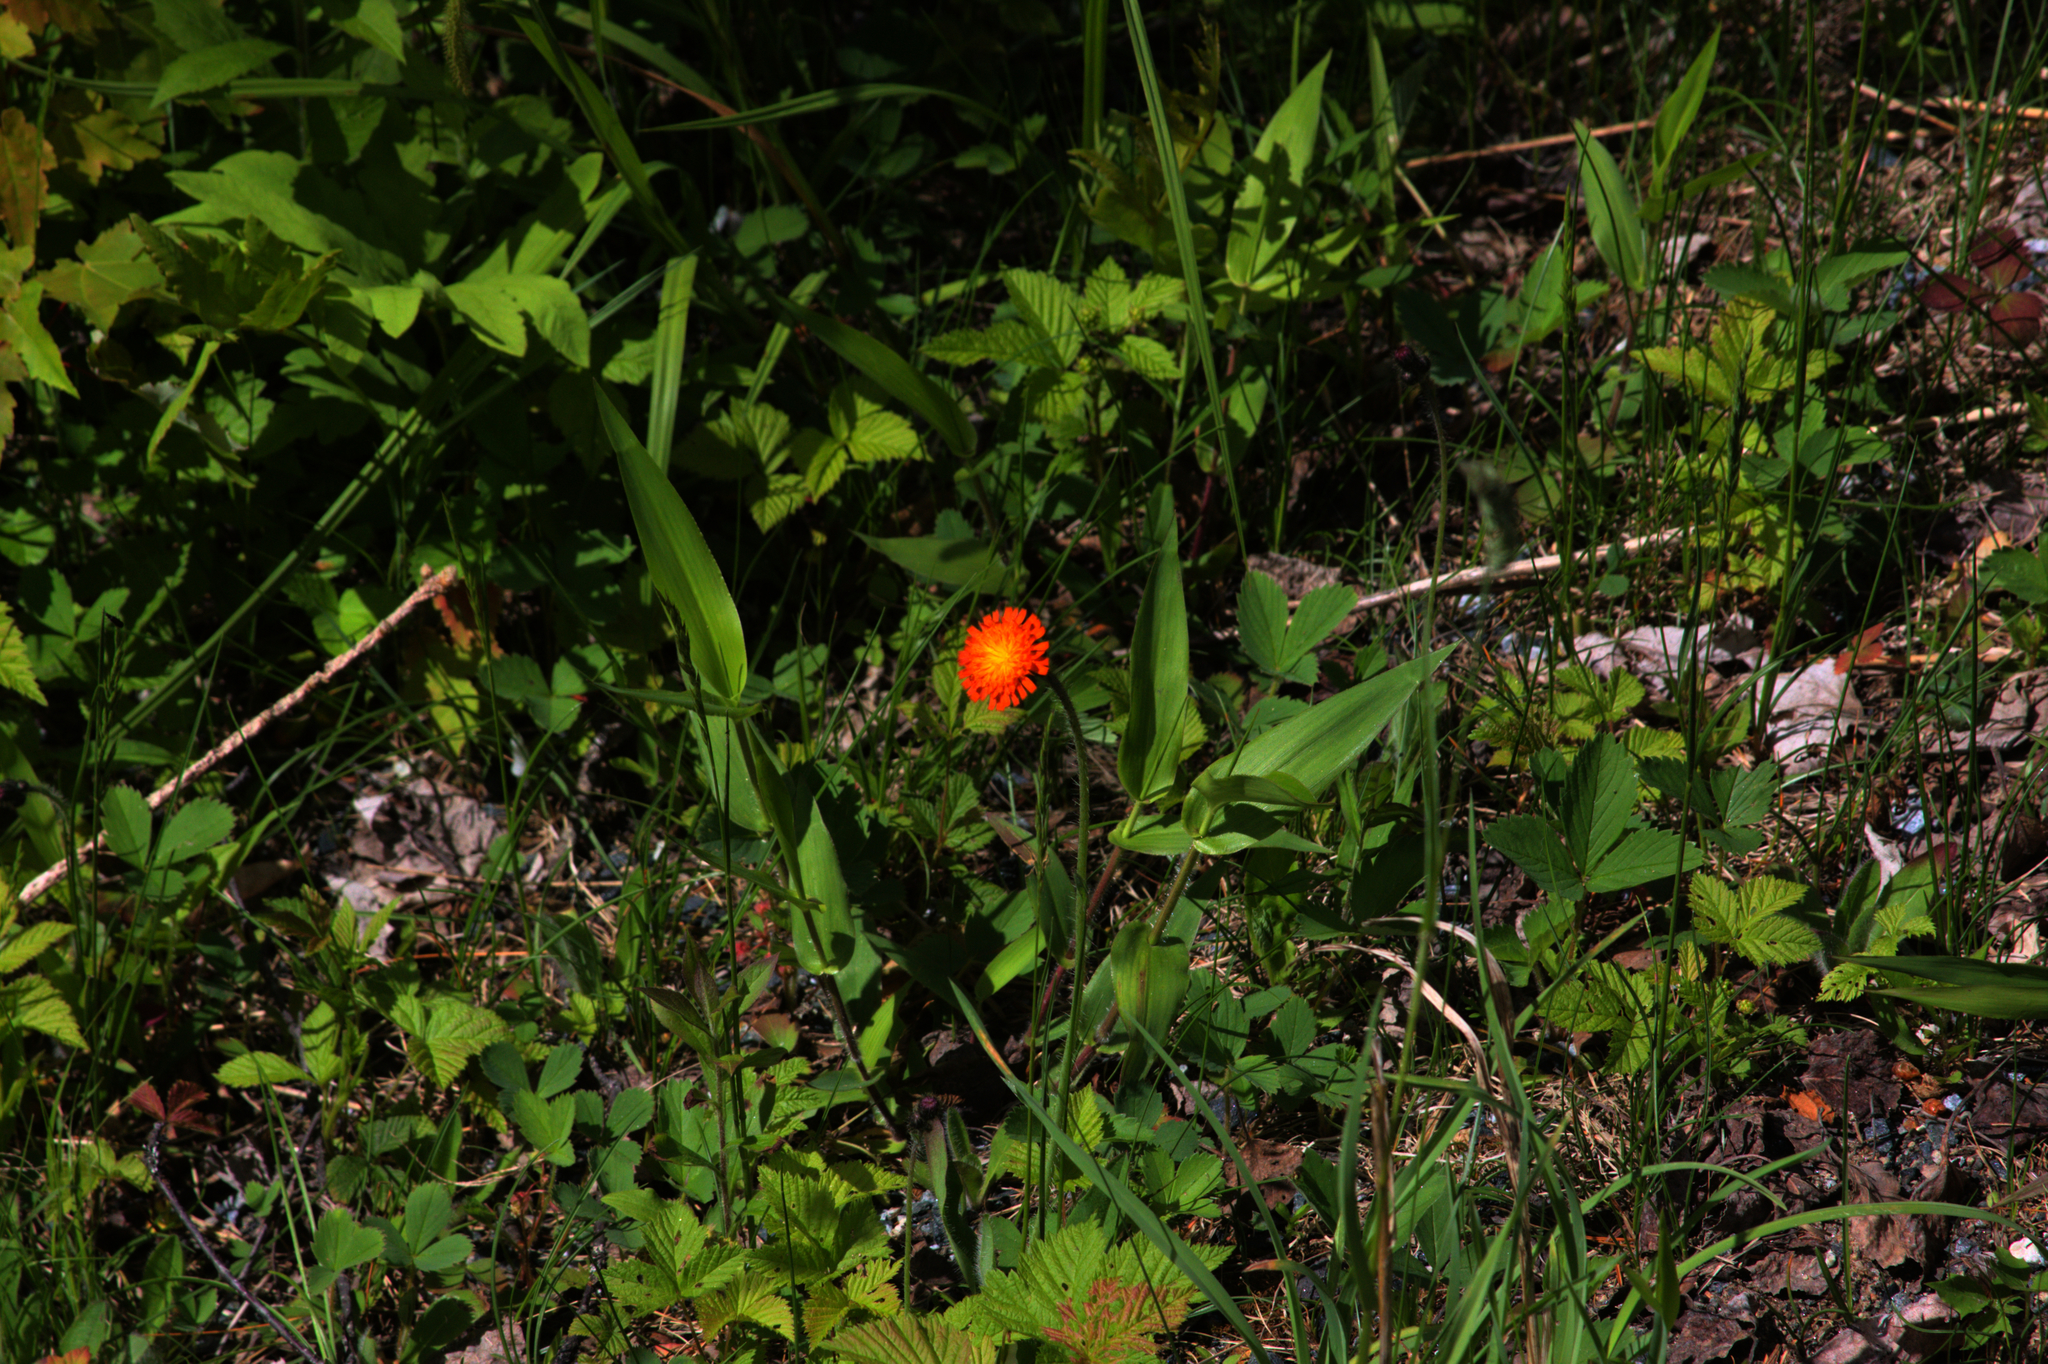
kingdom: Plantae
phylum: Tracheophyta
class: Magnoliopsida
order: Asterales
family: Asteraceae
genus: Pilosella
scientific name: Pilosella aurantiaca
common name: Fox-and-cubs
